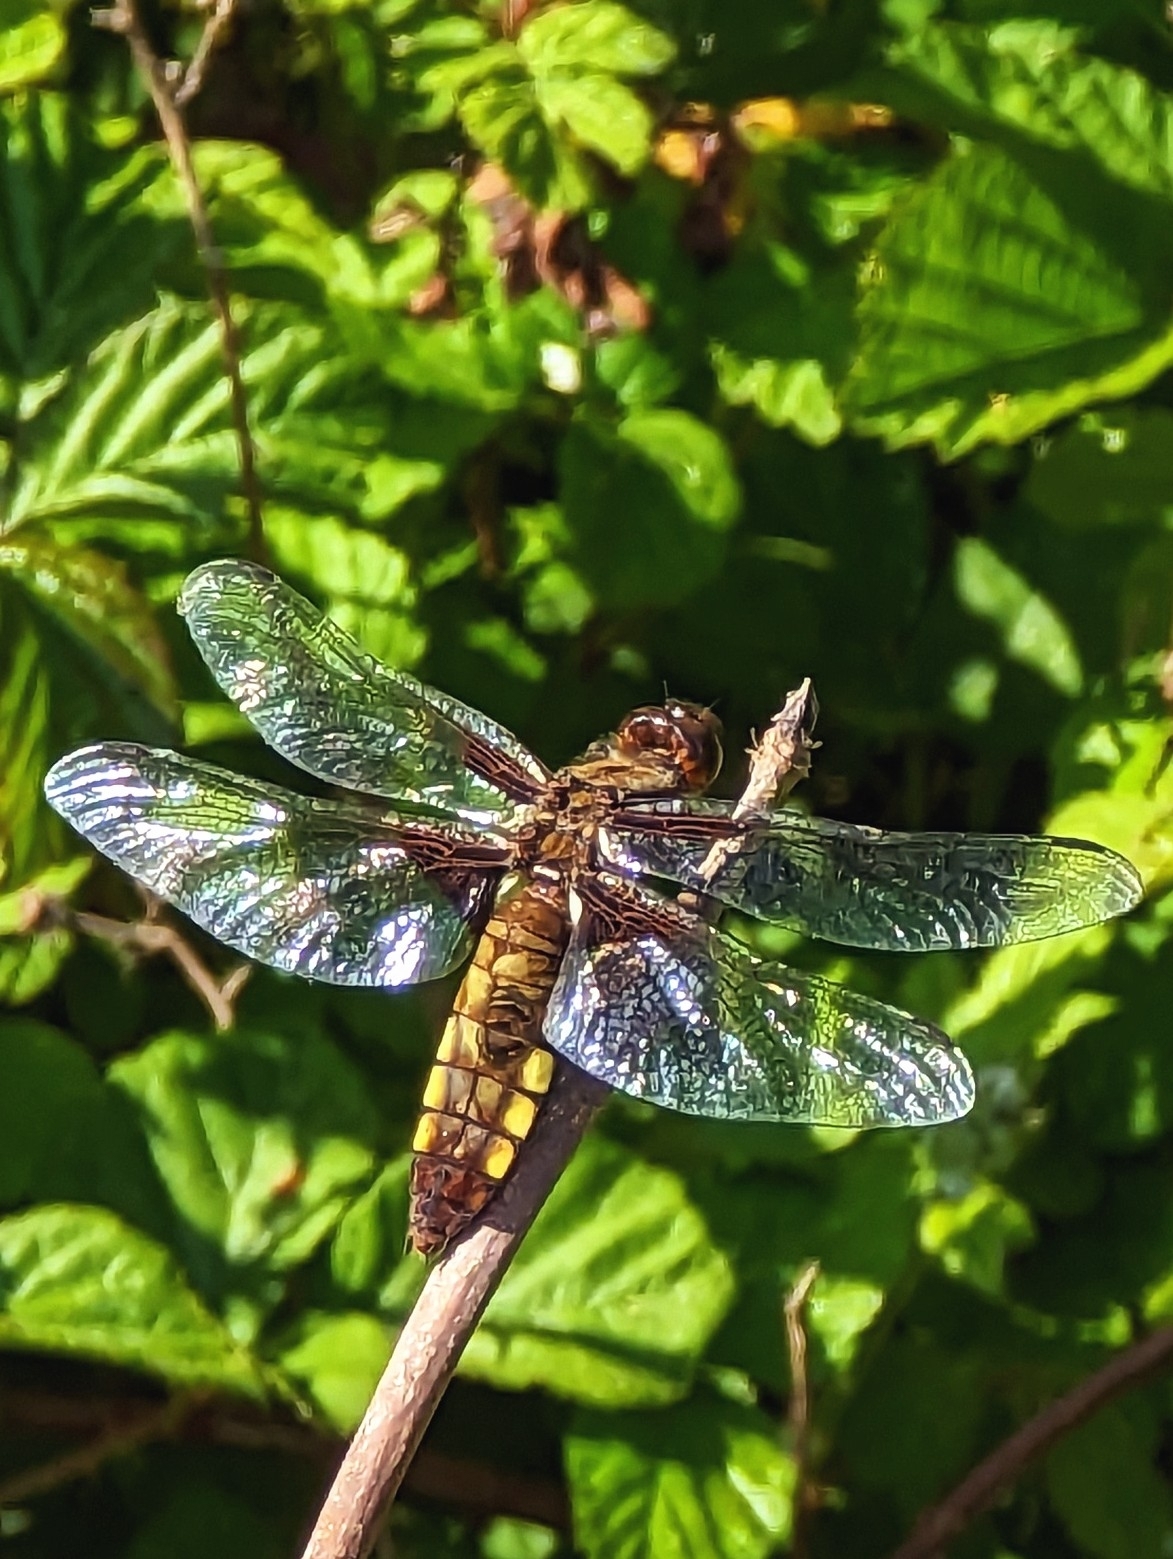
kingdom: Animalia
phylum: Arthropoda
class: Insecta
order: Odonata
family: Libellulidae
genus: Libellula
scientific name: Libellula depressa
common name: Broad-bodied chaser
